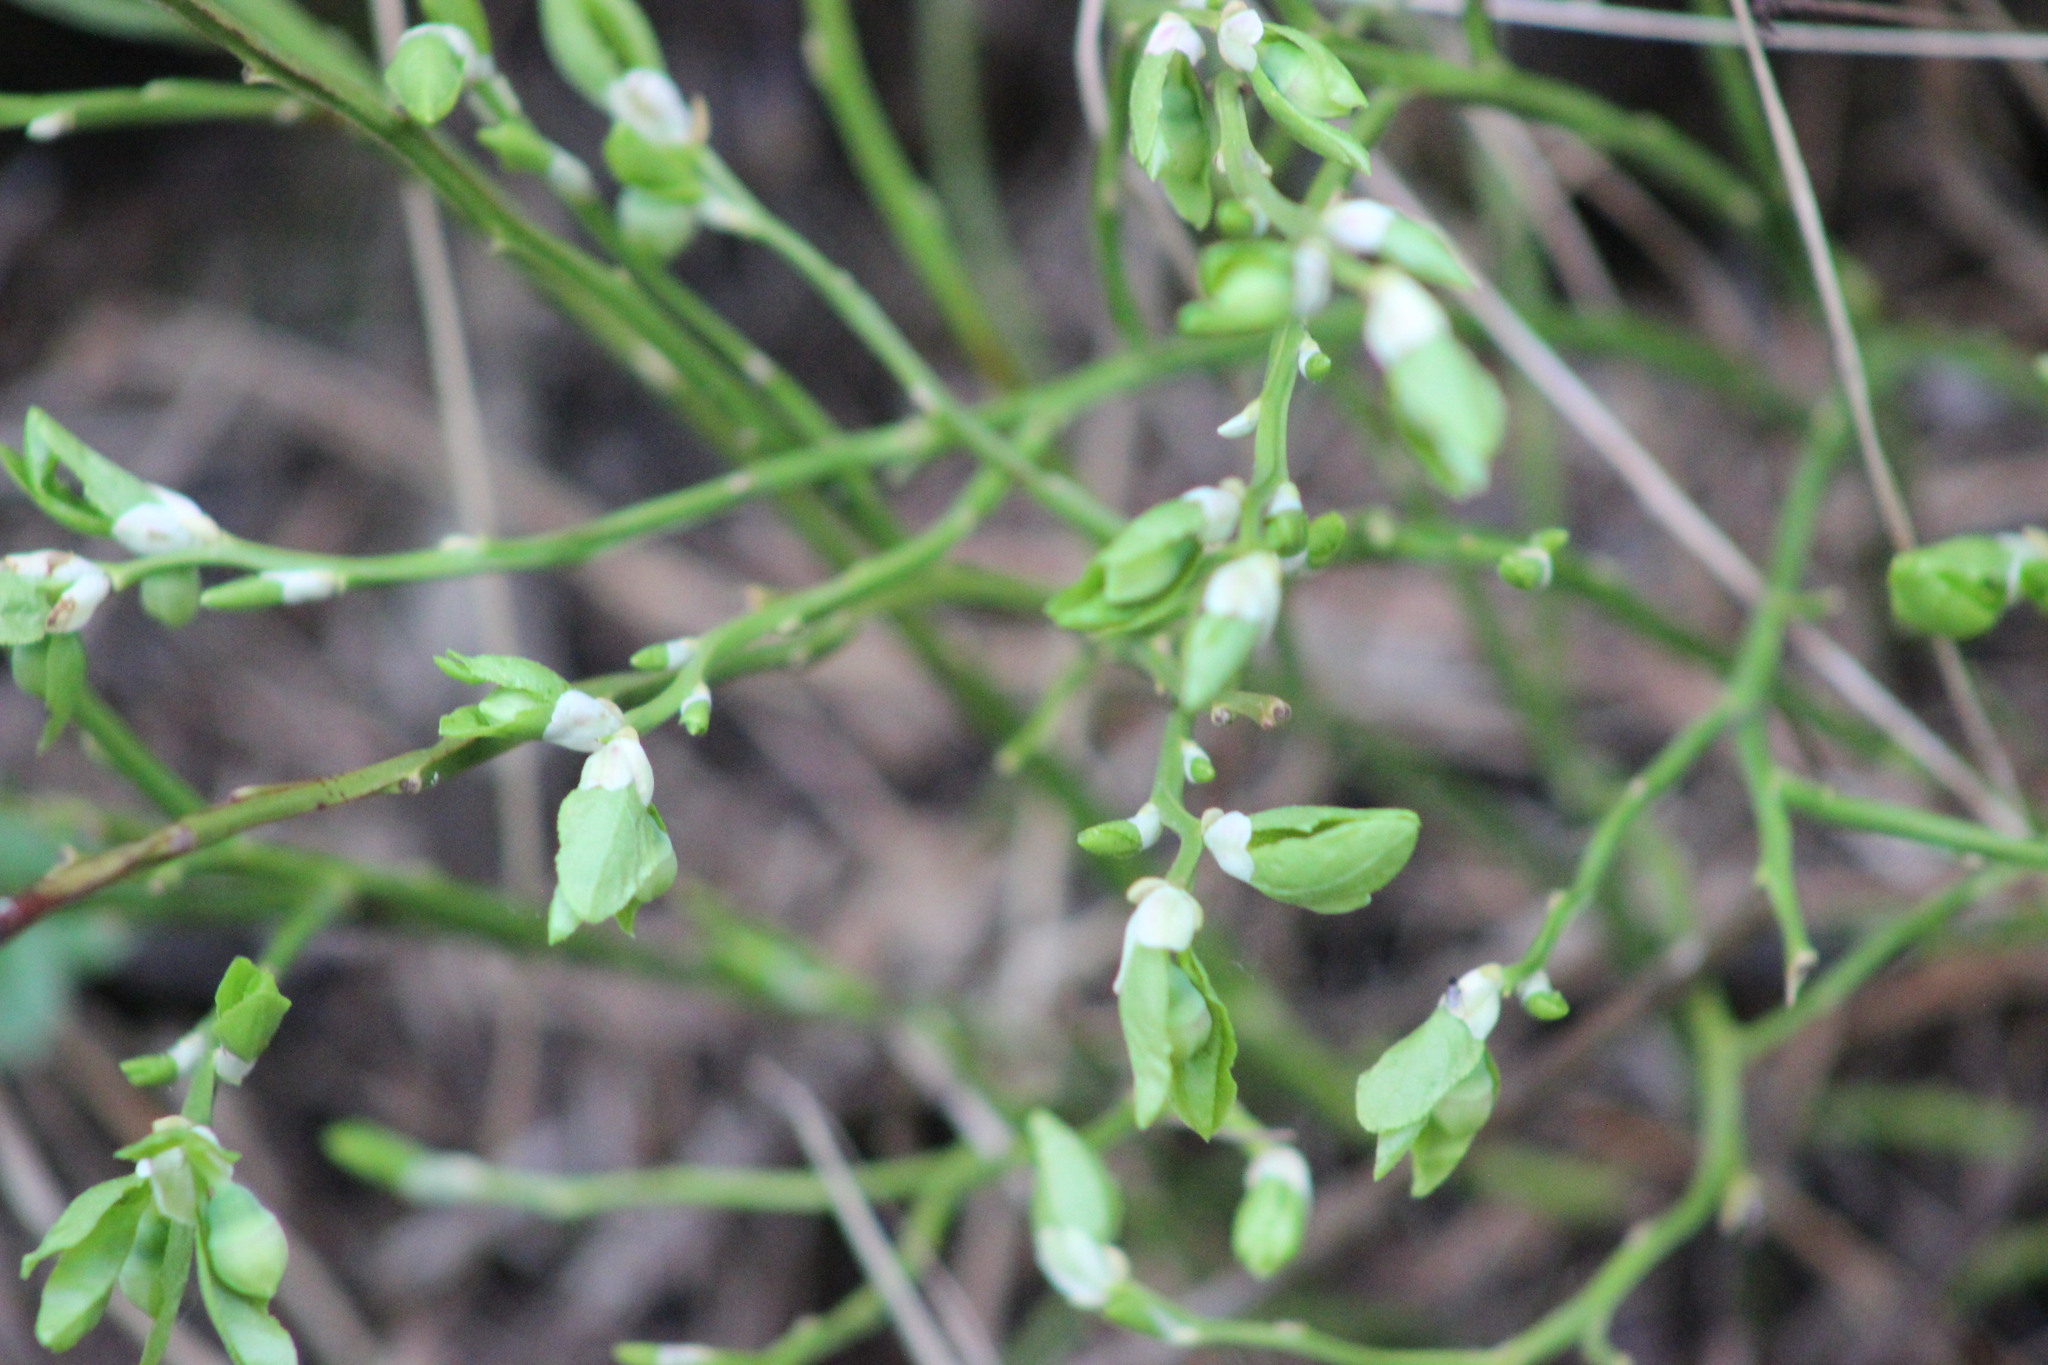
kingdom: Plantae
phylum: Tracheophyta
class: Magnoliopsida
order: Ericales
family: Ericaceae
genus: Vaccinium
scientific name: Vaccinium myrtillus
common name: Bilberry
